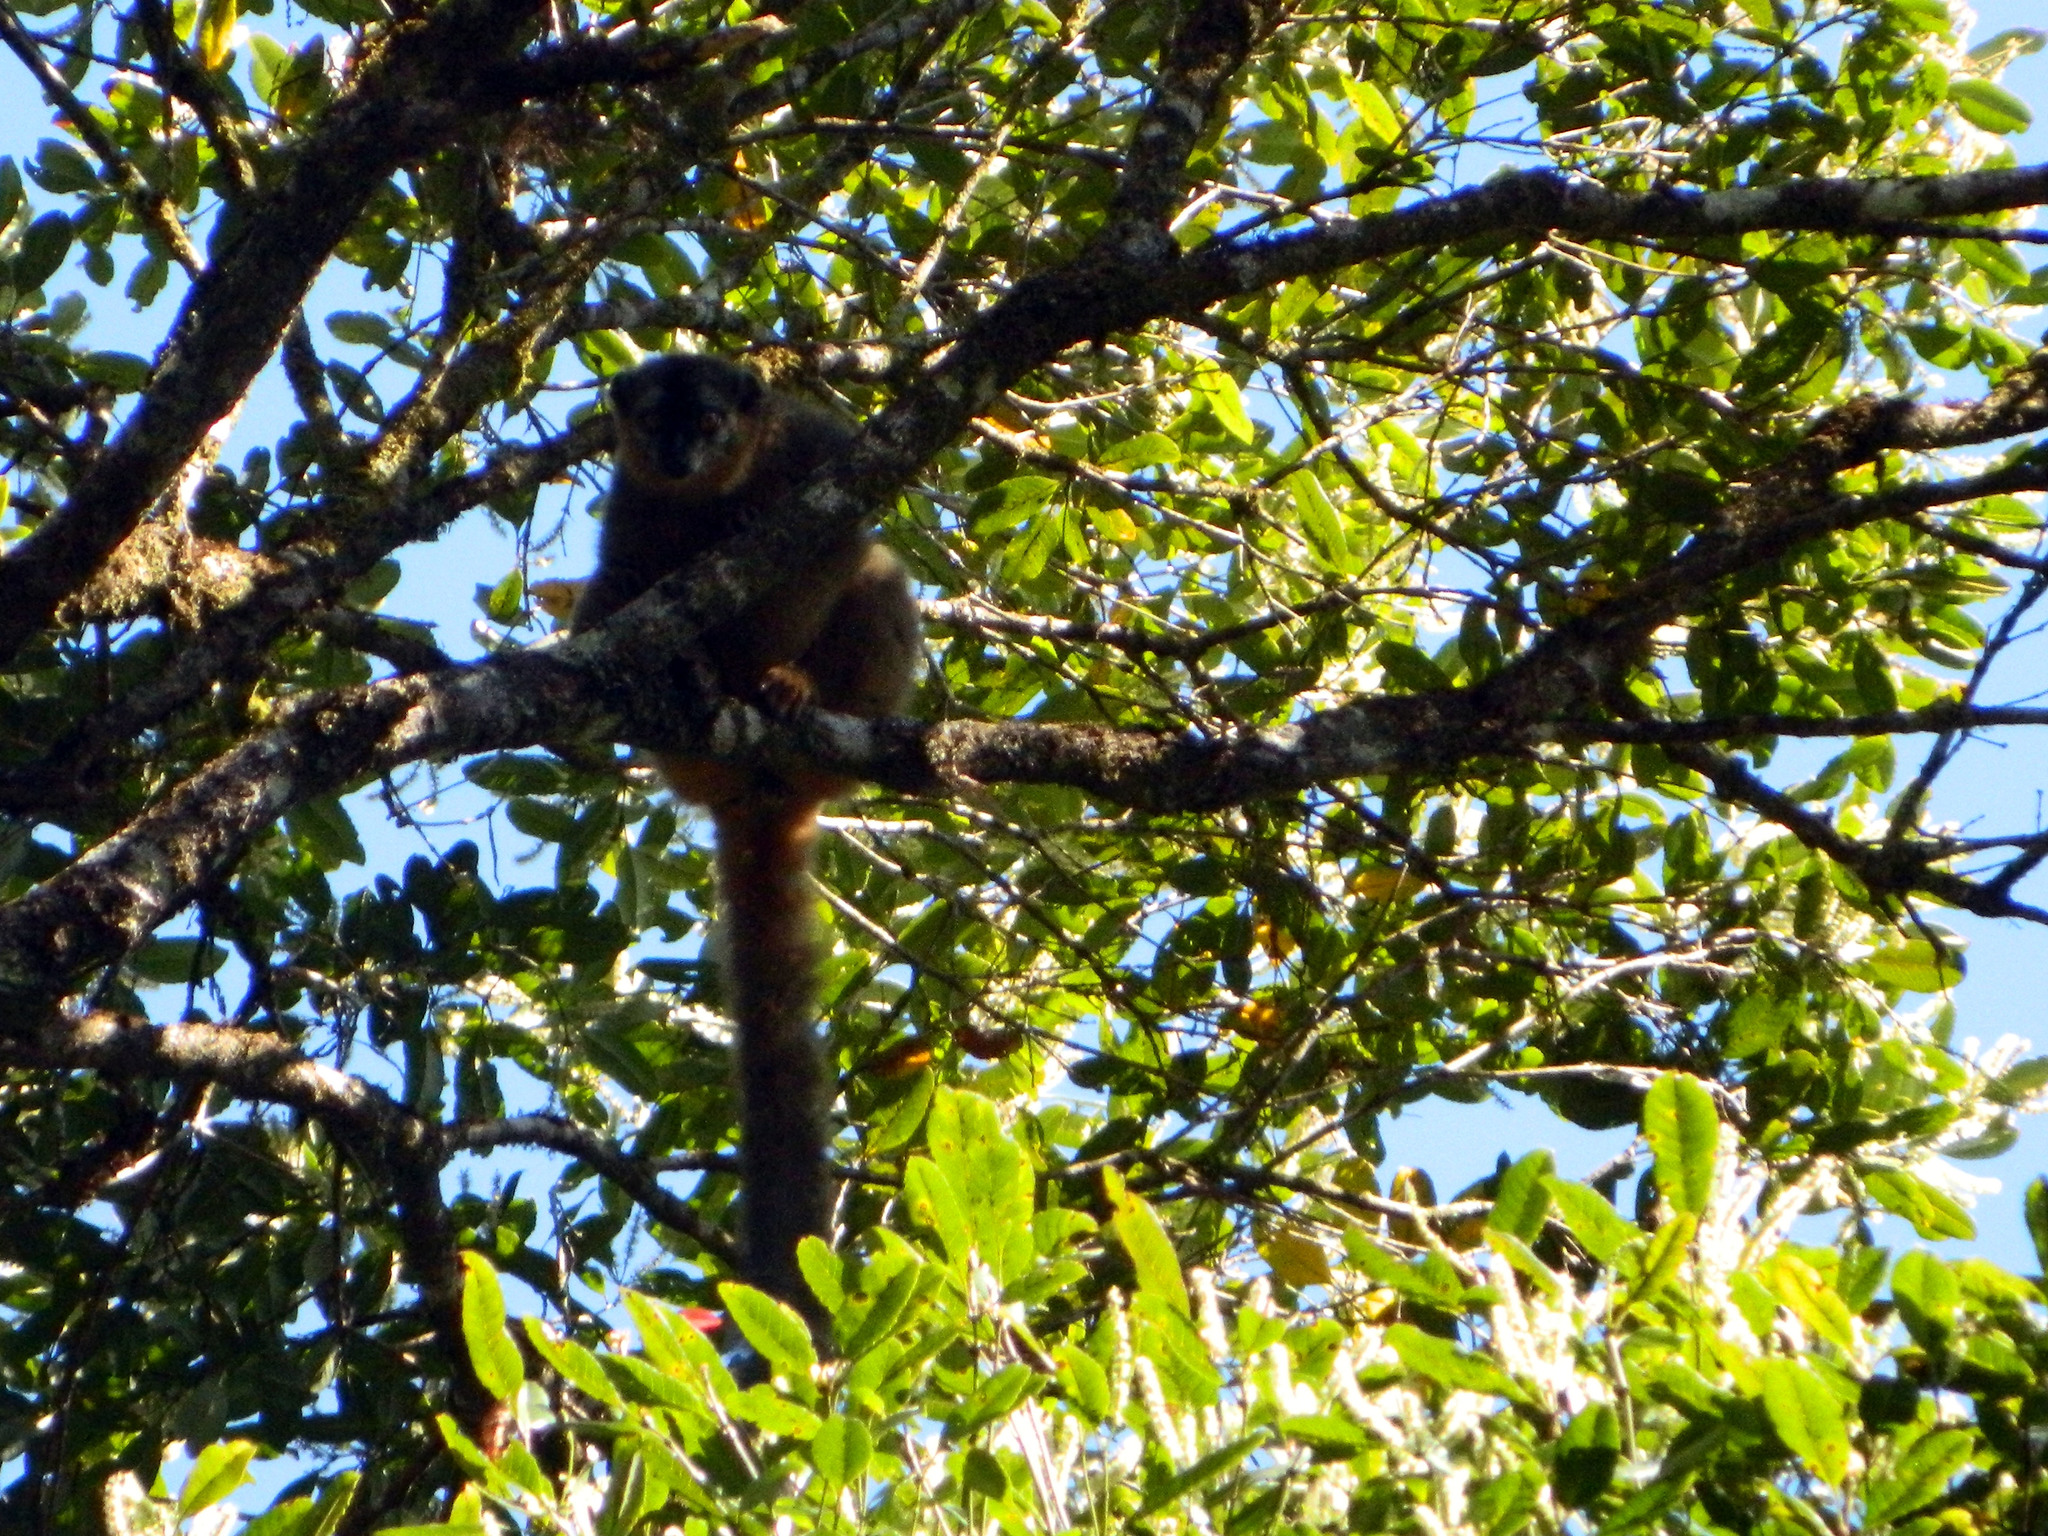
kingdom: Animalia
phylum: Chordata
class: Mammalia
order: Primates
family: Lemuridae
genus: Eulemur
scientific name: Eulemur rufifrons
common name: Red-fronted brown lemur
